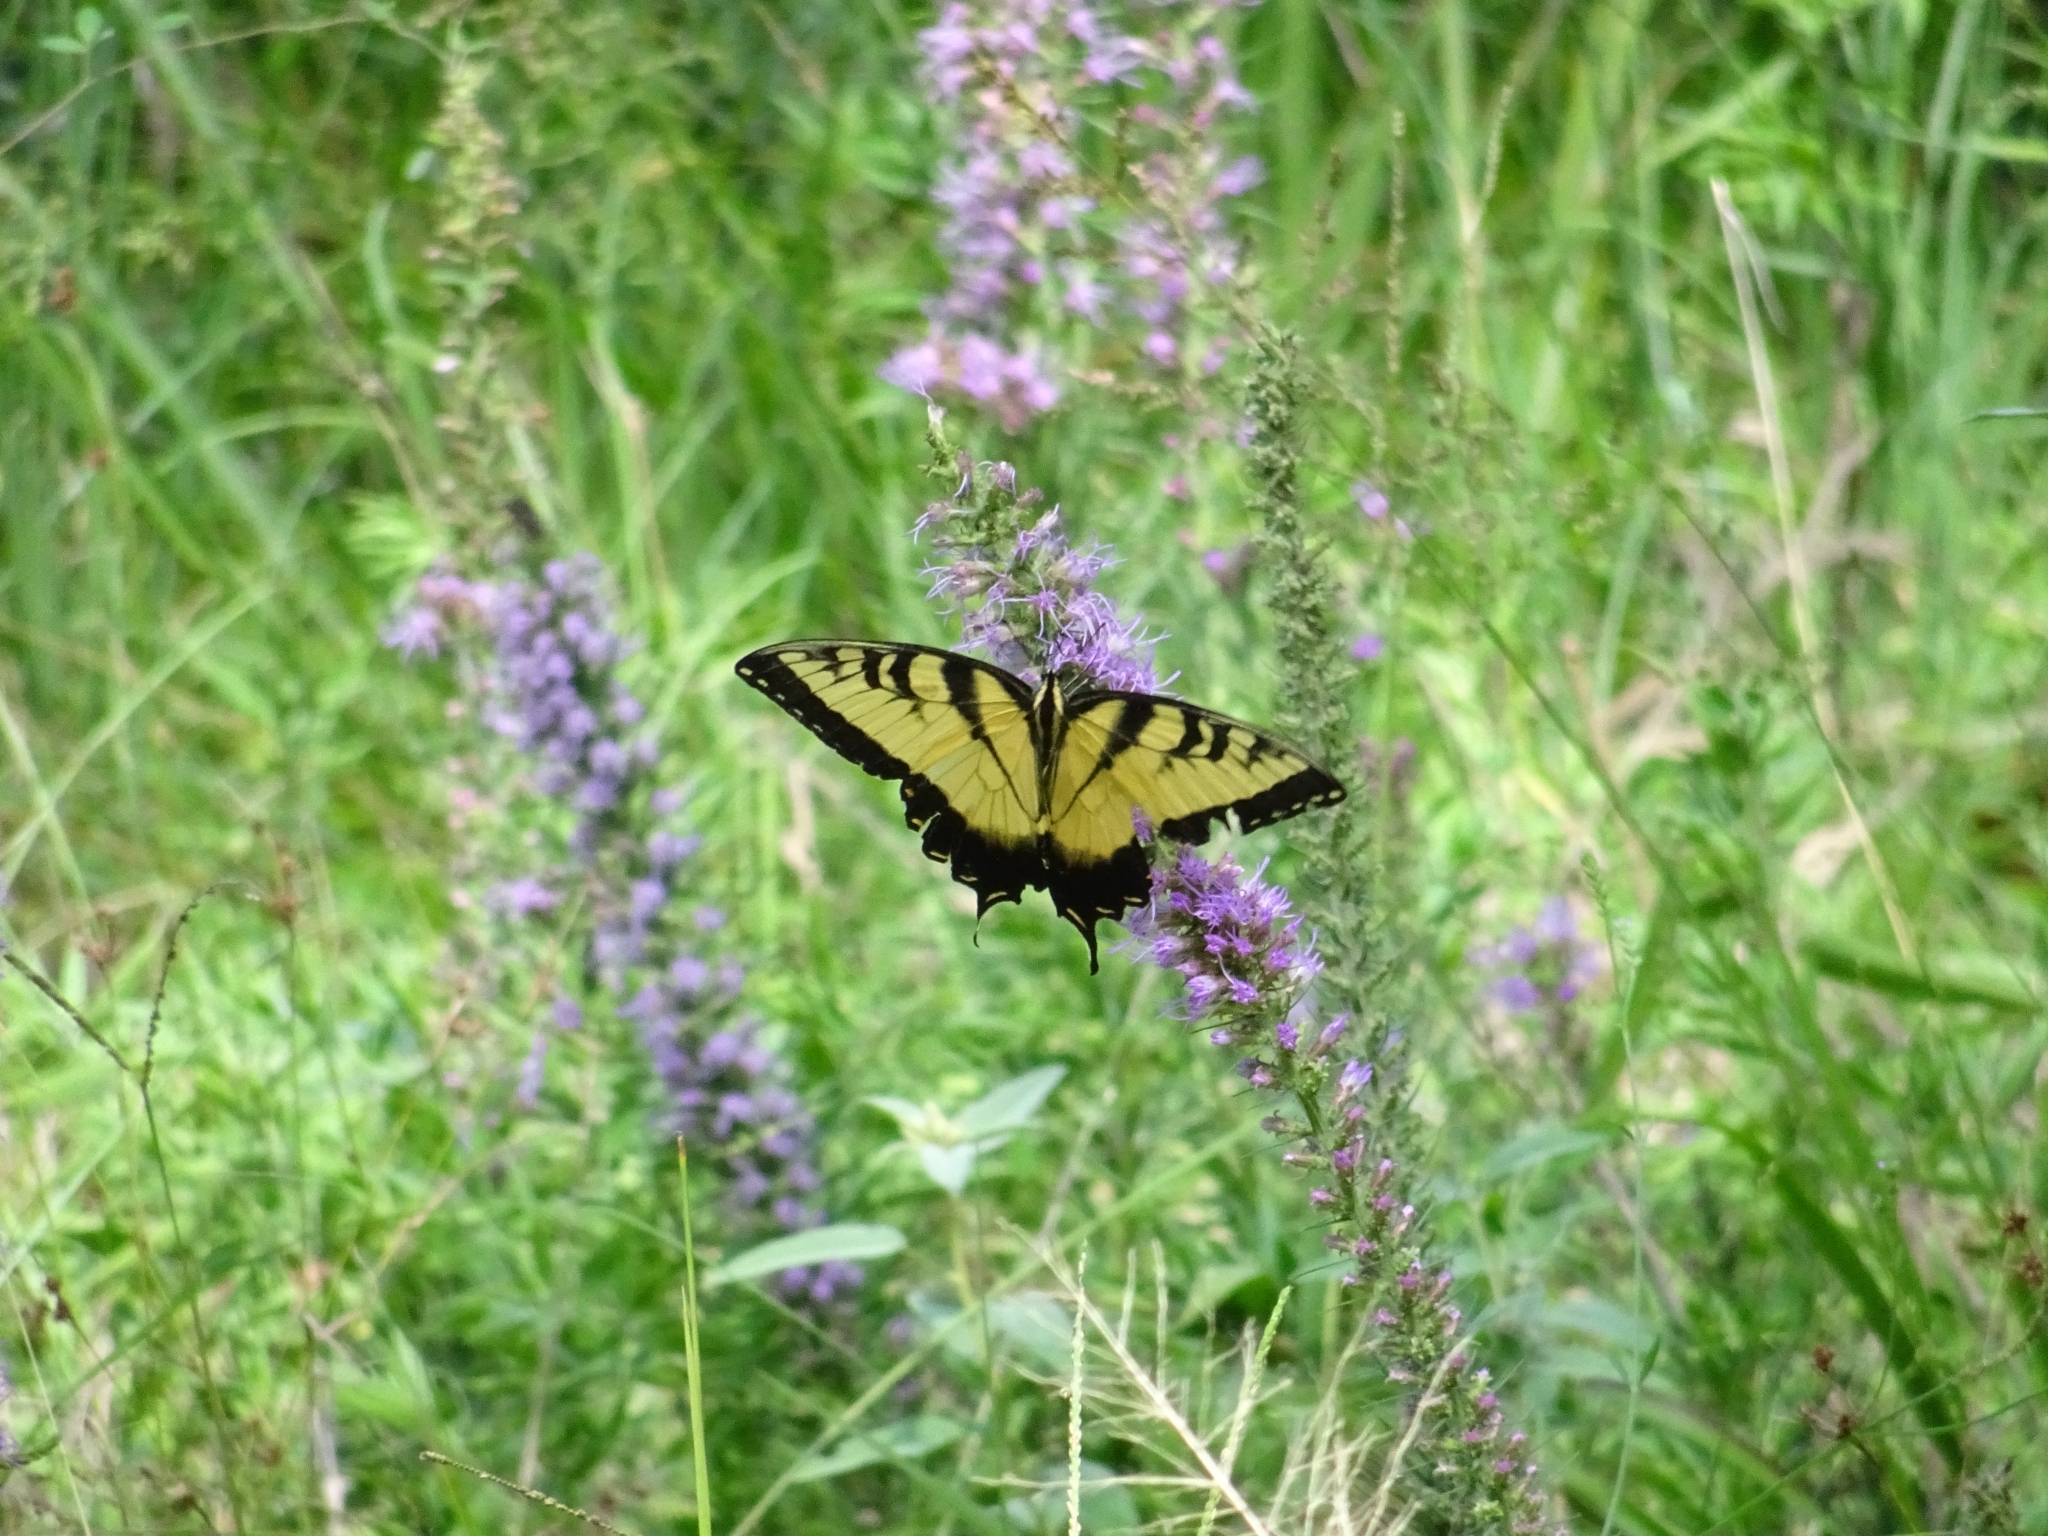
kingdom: Animalia
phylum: Arthropoda
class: Insecta
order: Lepidoptera
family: Papilionidae
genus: Papilio
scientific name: Papilio glaucus
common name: Tiger swallowtail
